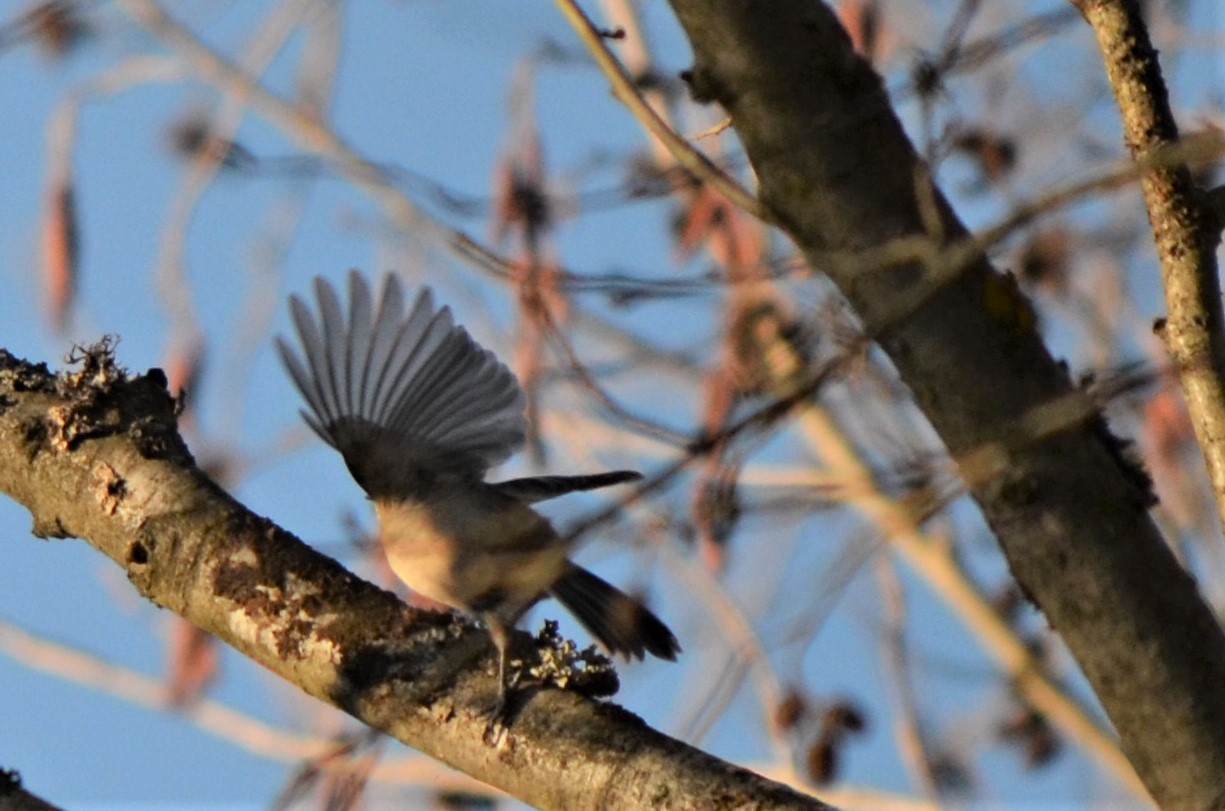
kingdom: Animalia
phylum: Chordata
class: Aves
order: Passeriformes
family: Paridae
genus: Poecile
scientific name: Poecile montanus
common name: Willow tit
